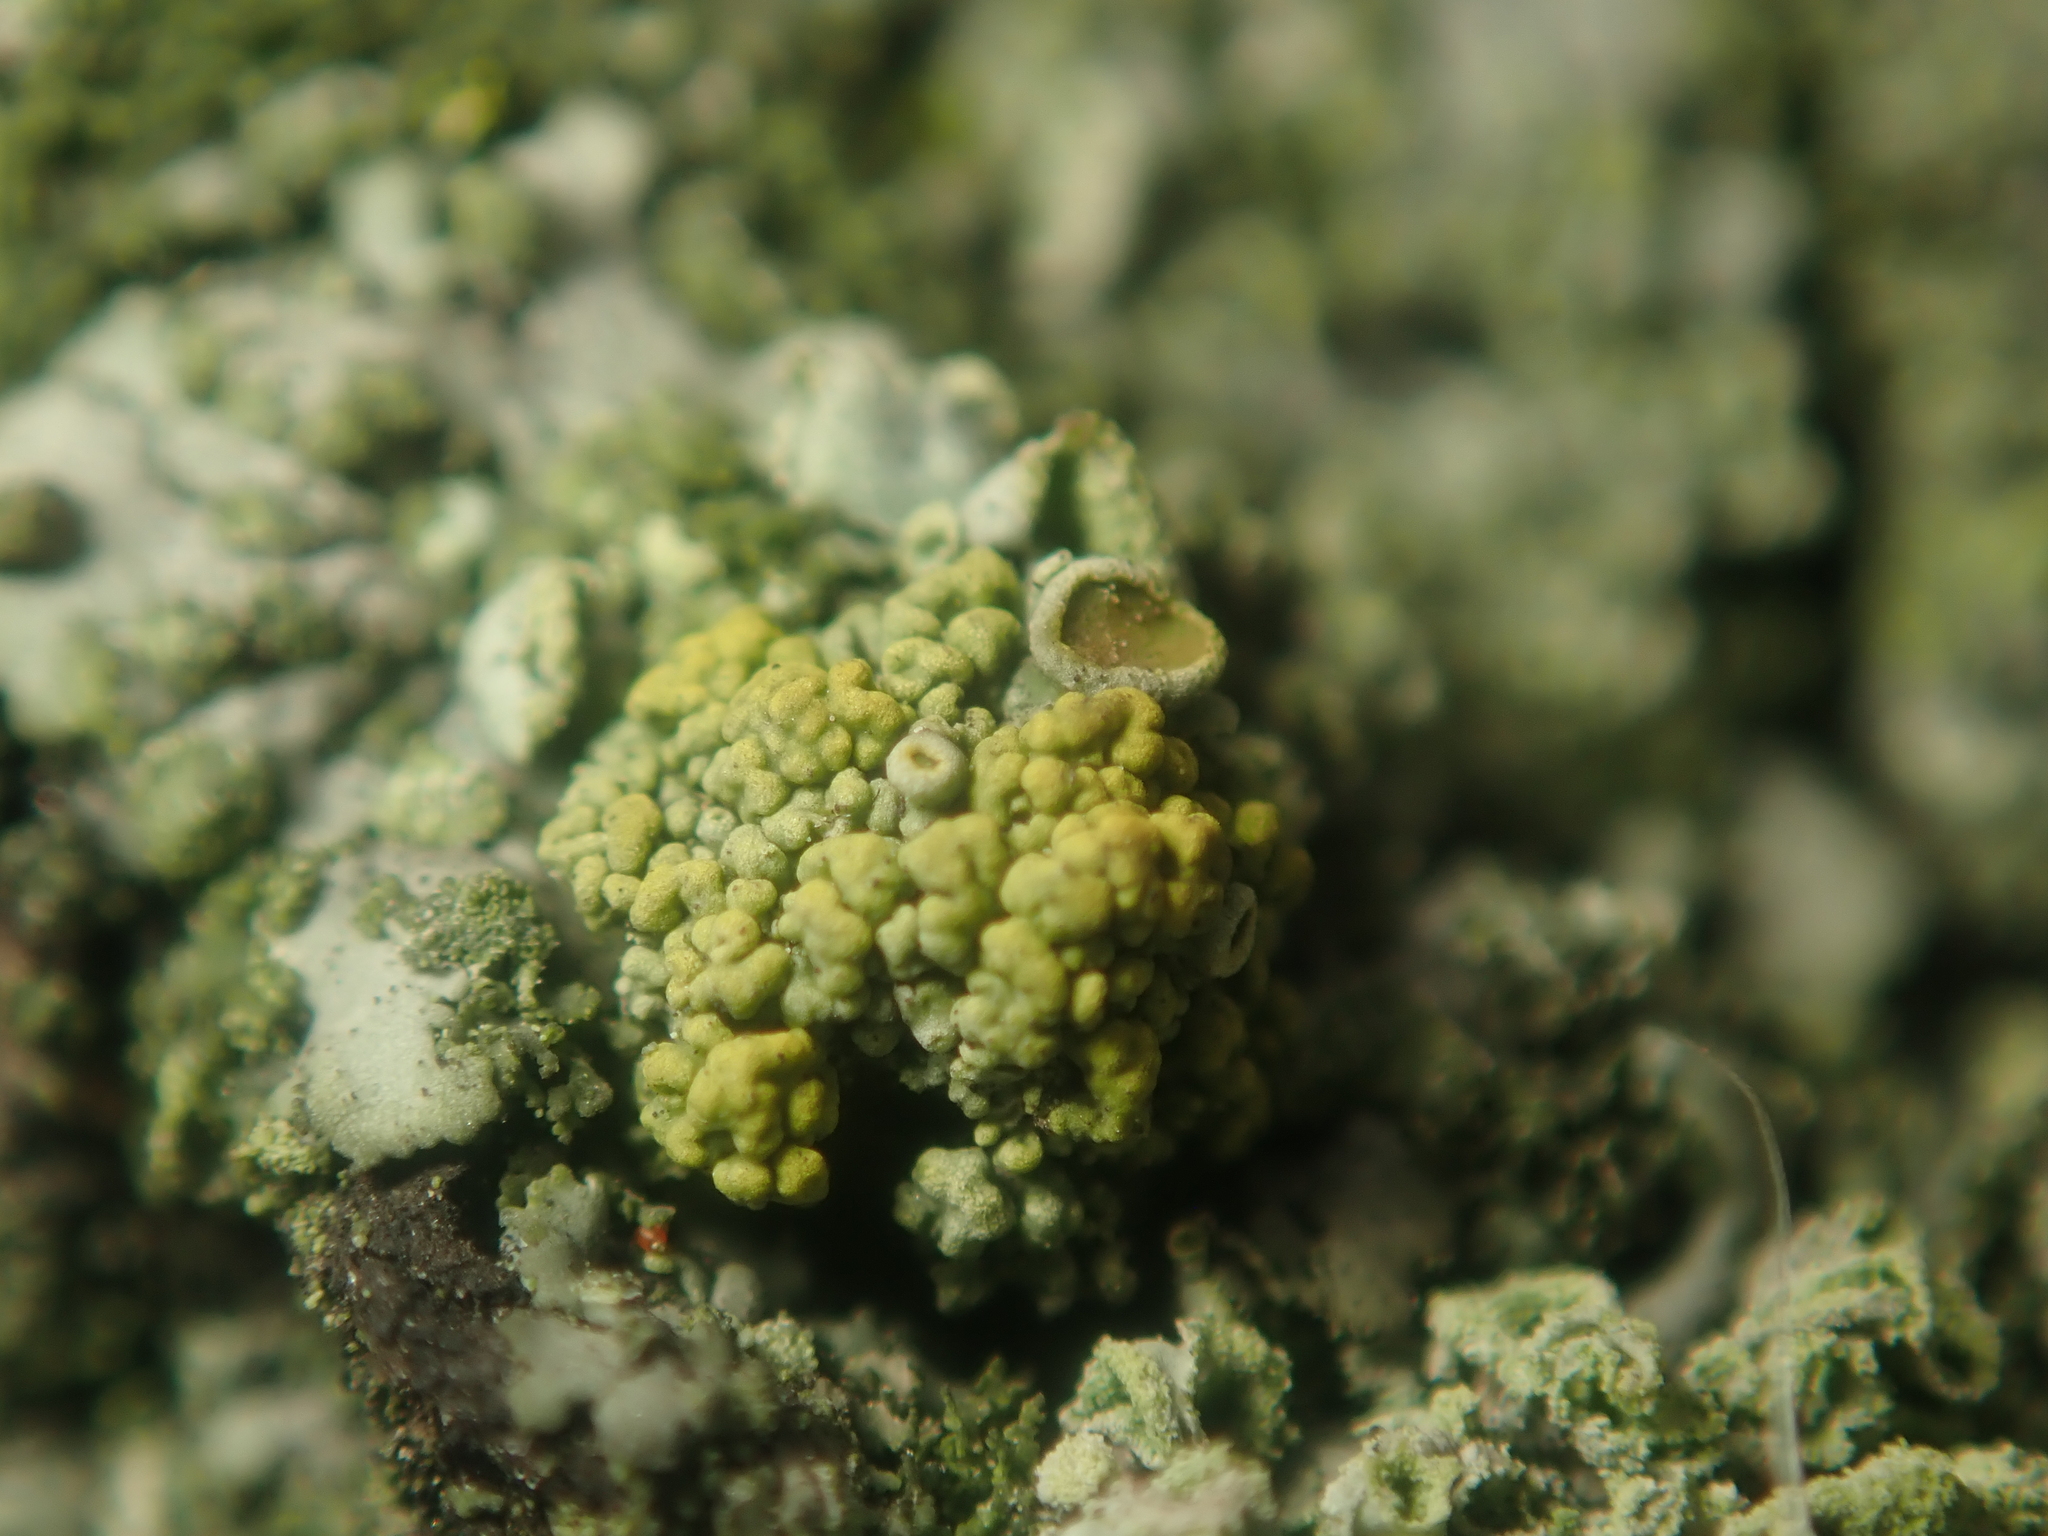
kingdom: Fungi
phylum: Ascomycota
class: Lecanoromycetes
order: Teloschistales
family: Teloschistaceae
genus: Polycauliona
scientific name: Polycauliona polycarpa
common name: Pin-cushion sunburst lichen
